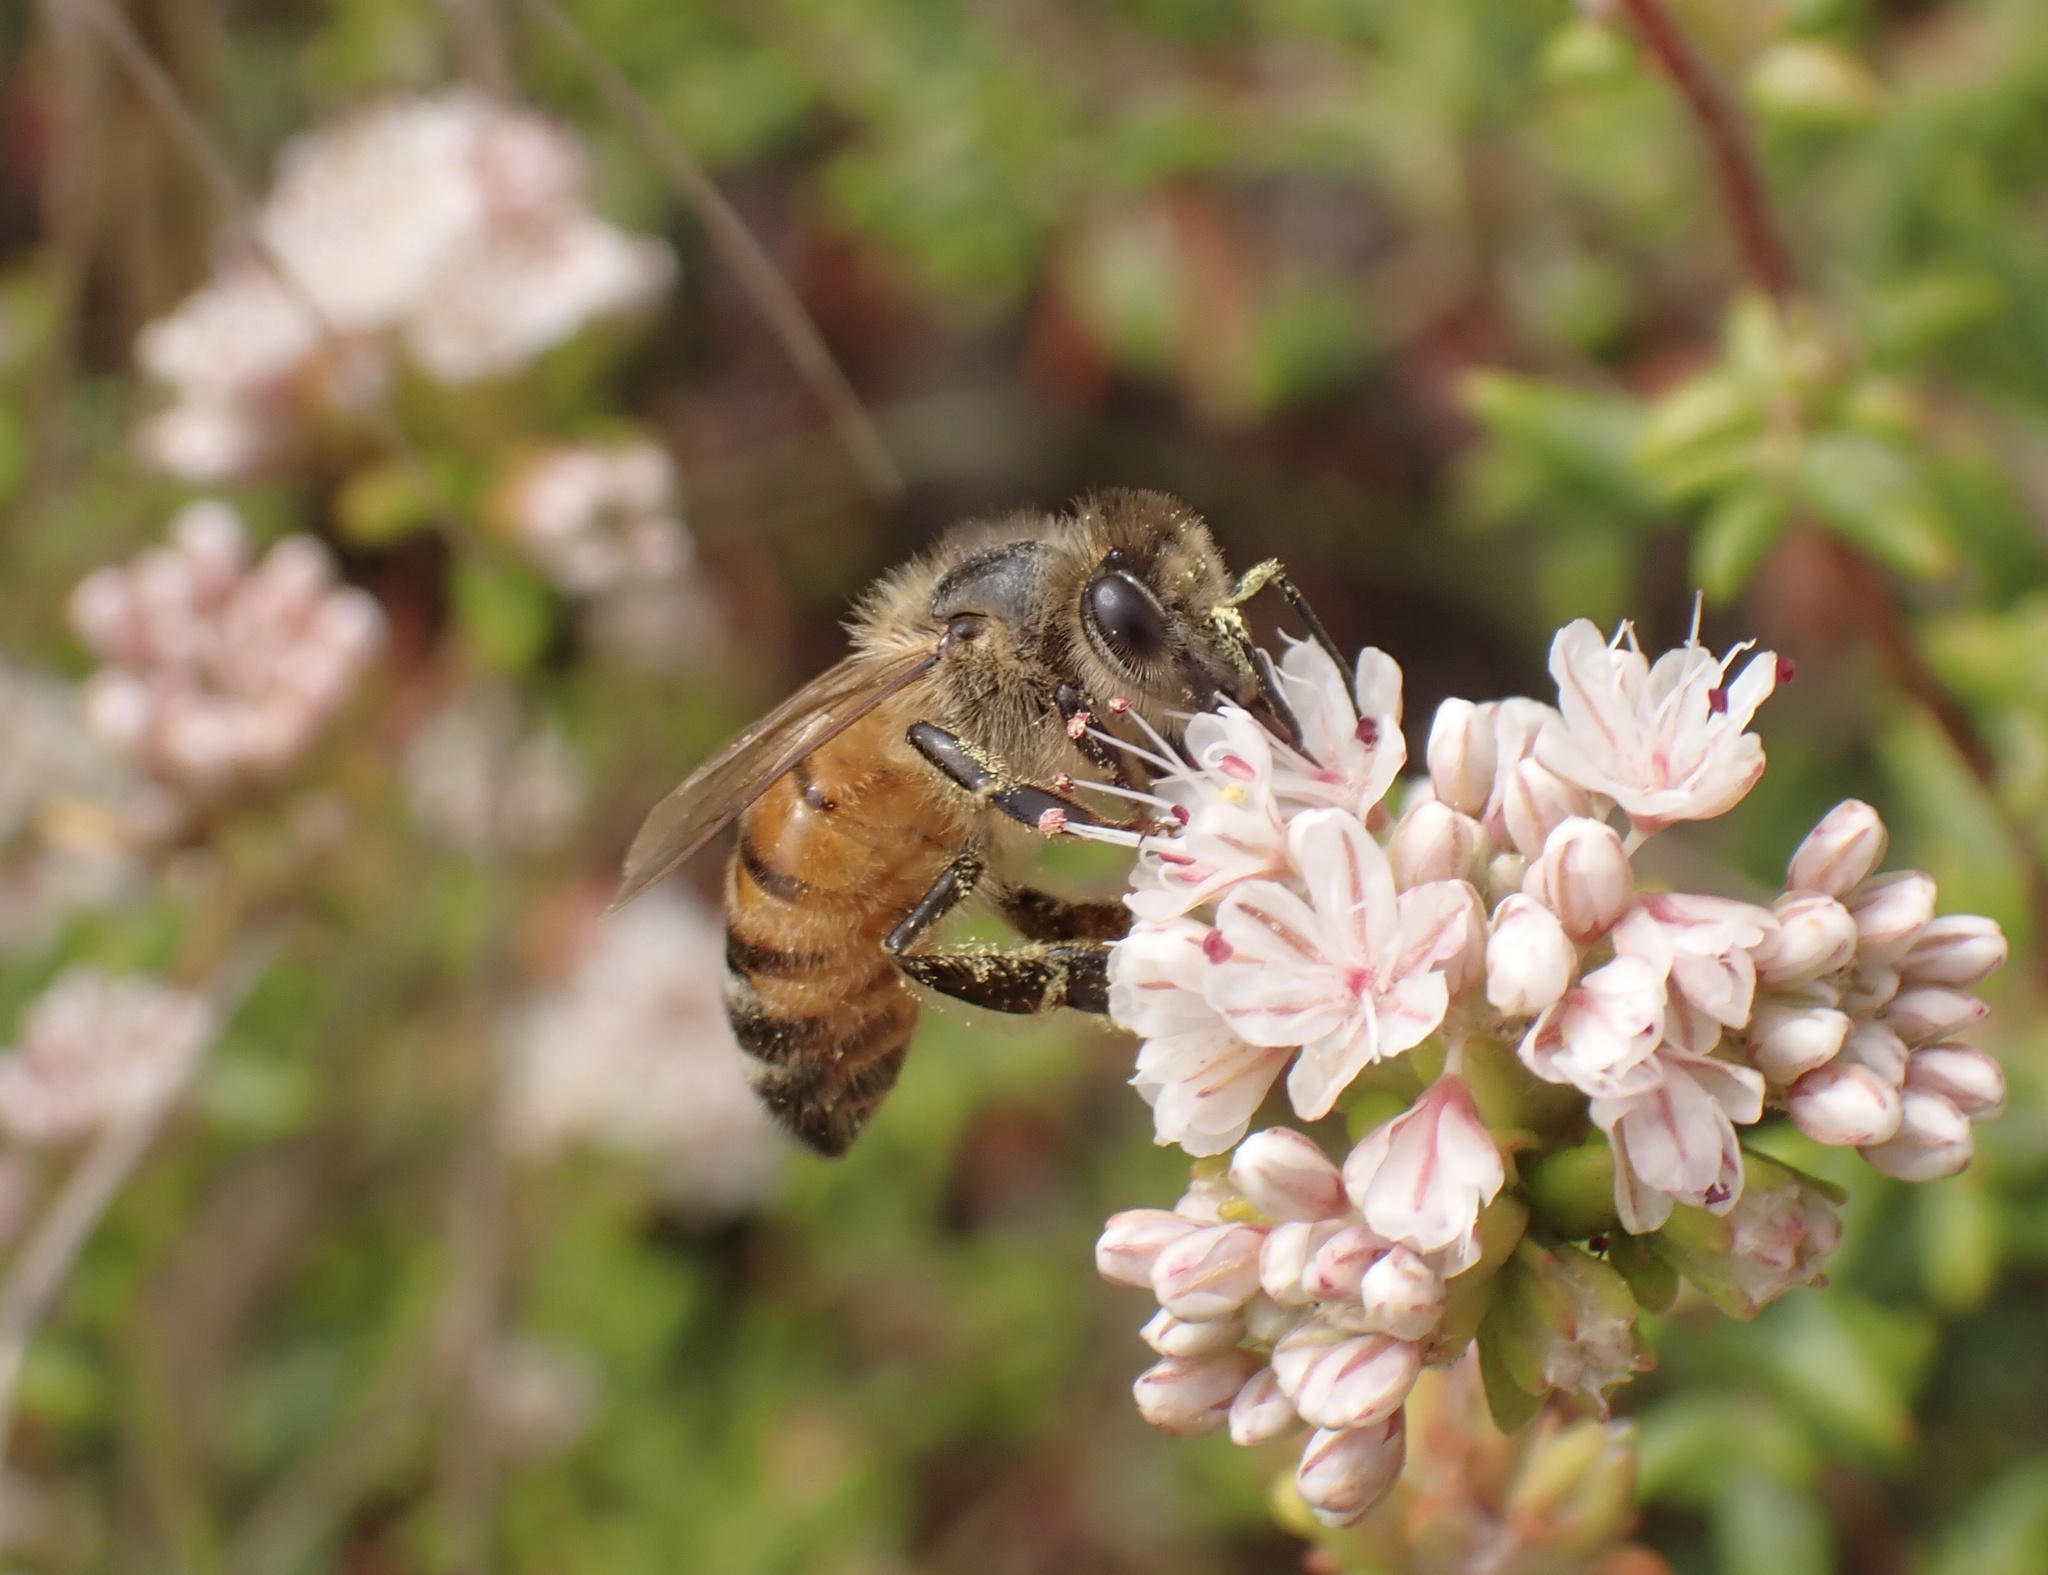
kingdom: Animalia
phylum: Arthropoda
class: Insecta
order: Hymenoptera
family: Apidae
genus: Apis
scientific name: Apis mellifera
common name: Honey bee
